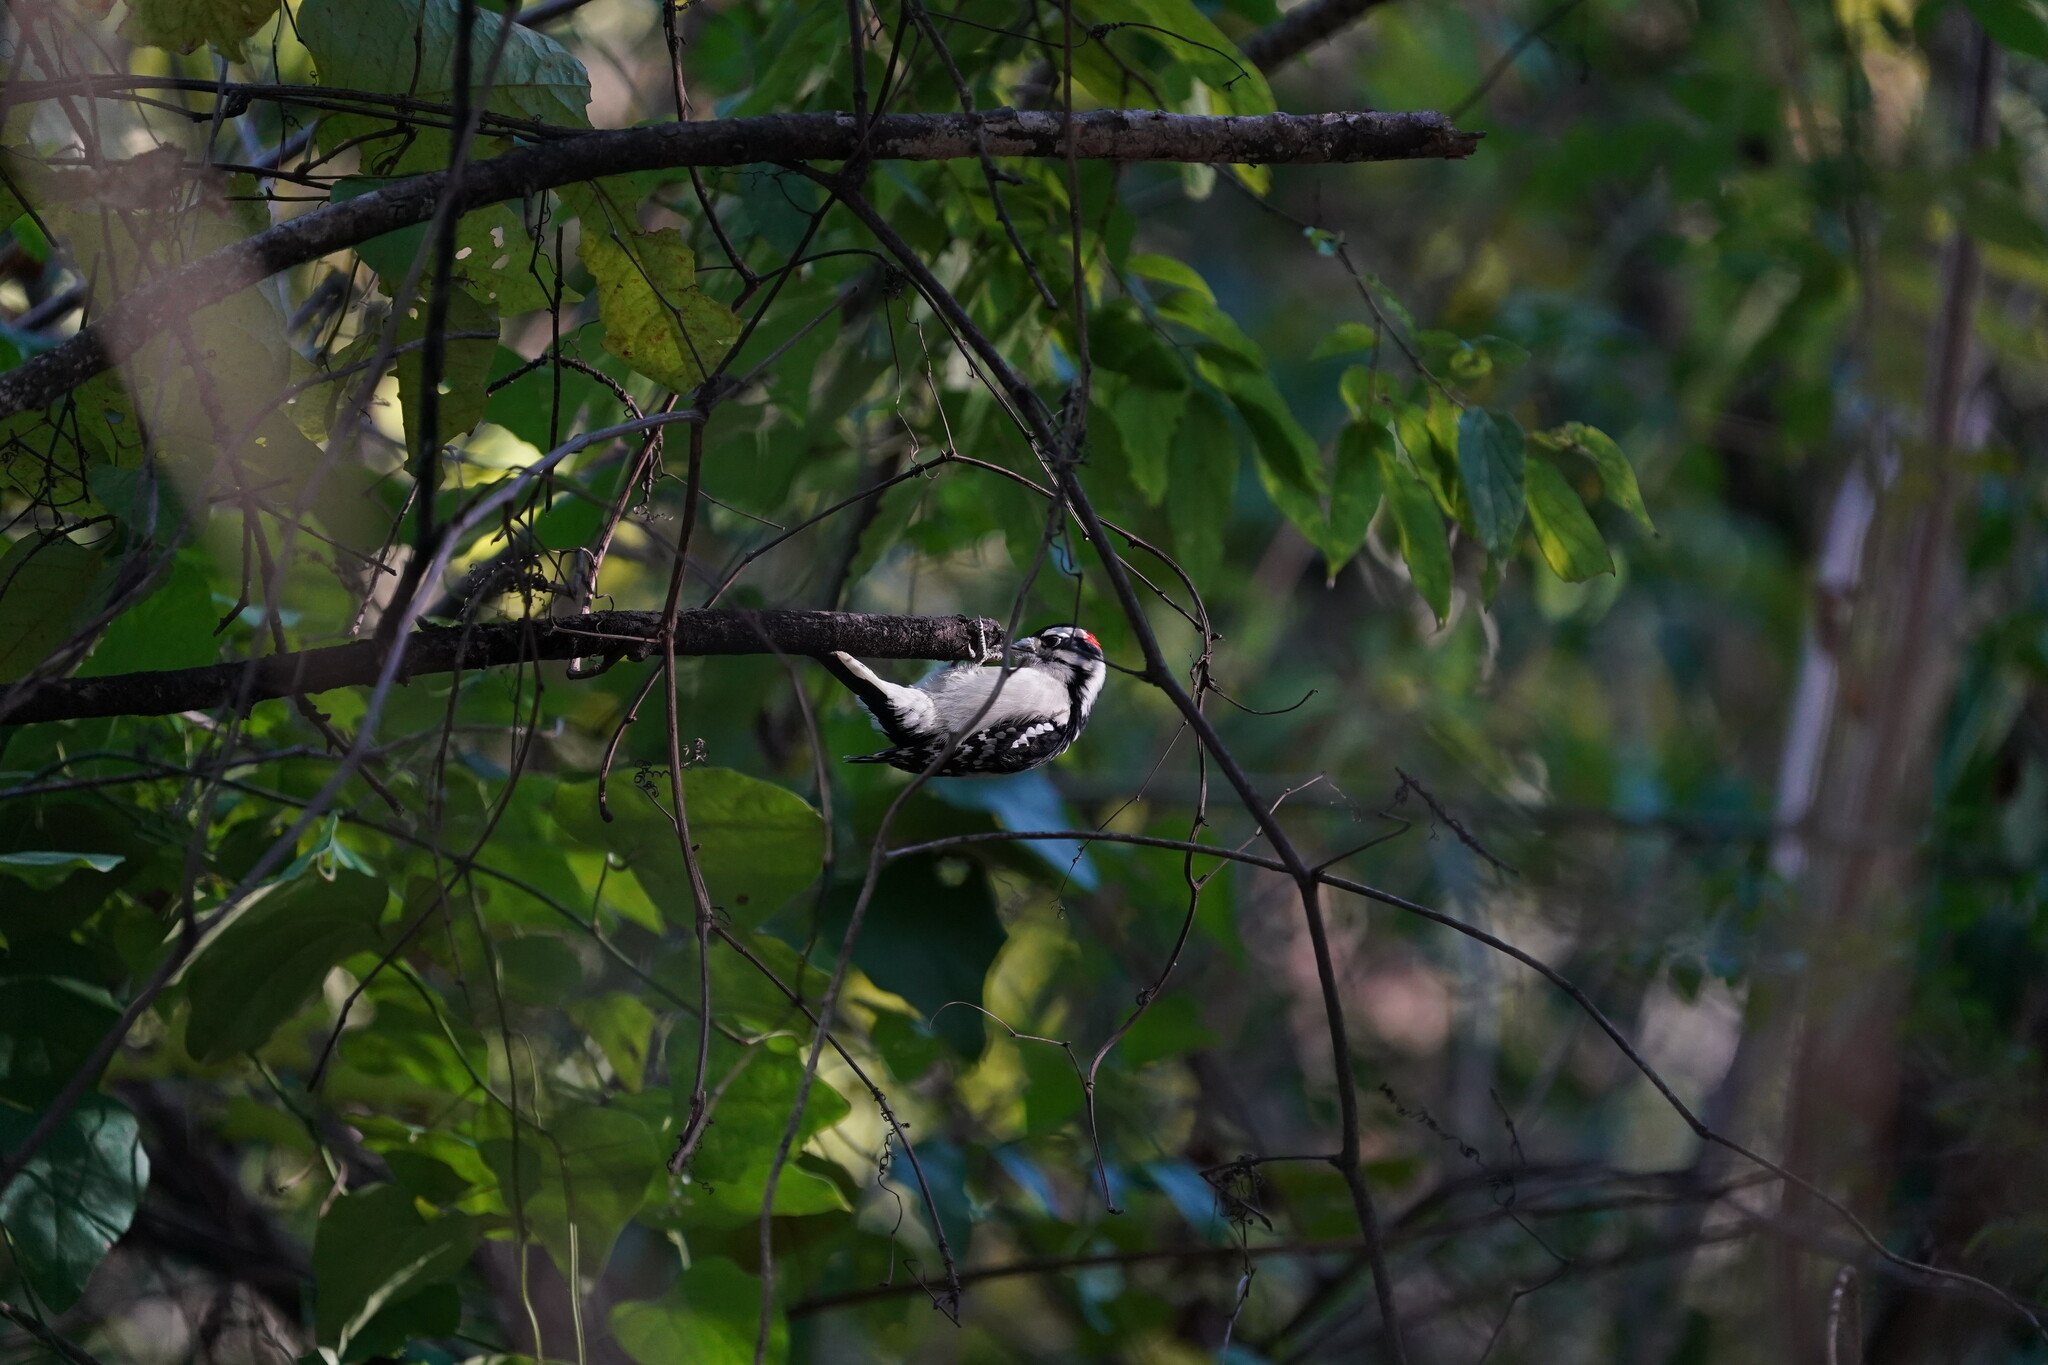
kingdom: Animalia
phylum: Chordata
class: Aves
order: Piciformes
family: Picidae
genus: Dryobates
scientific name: Dryobates pubescens
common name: Downy woodpecker
